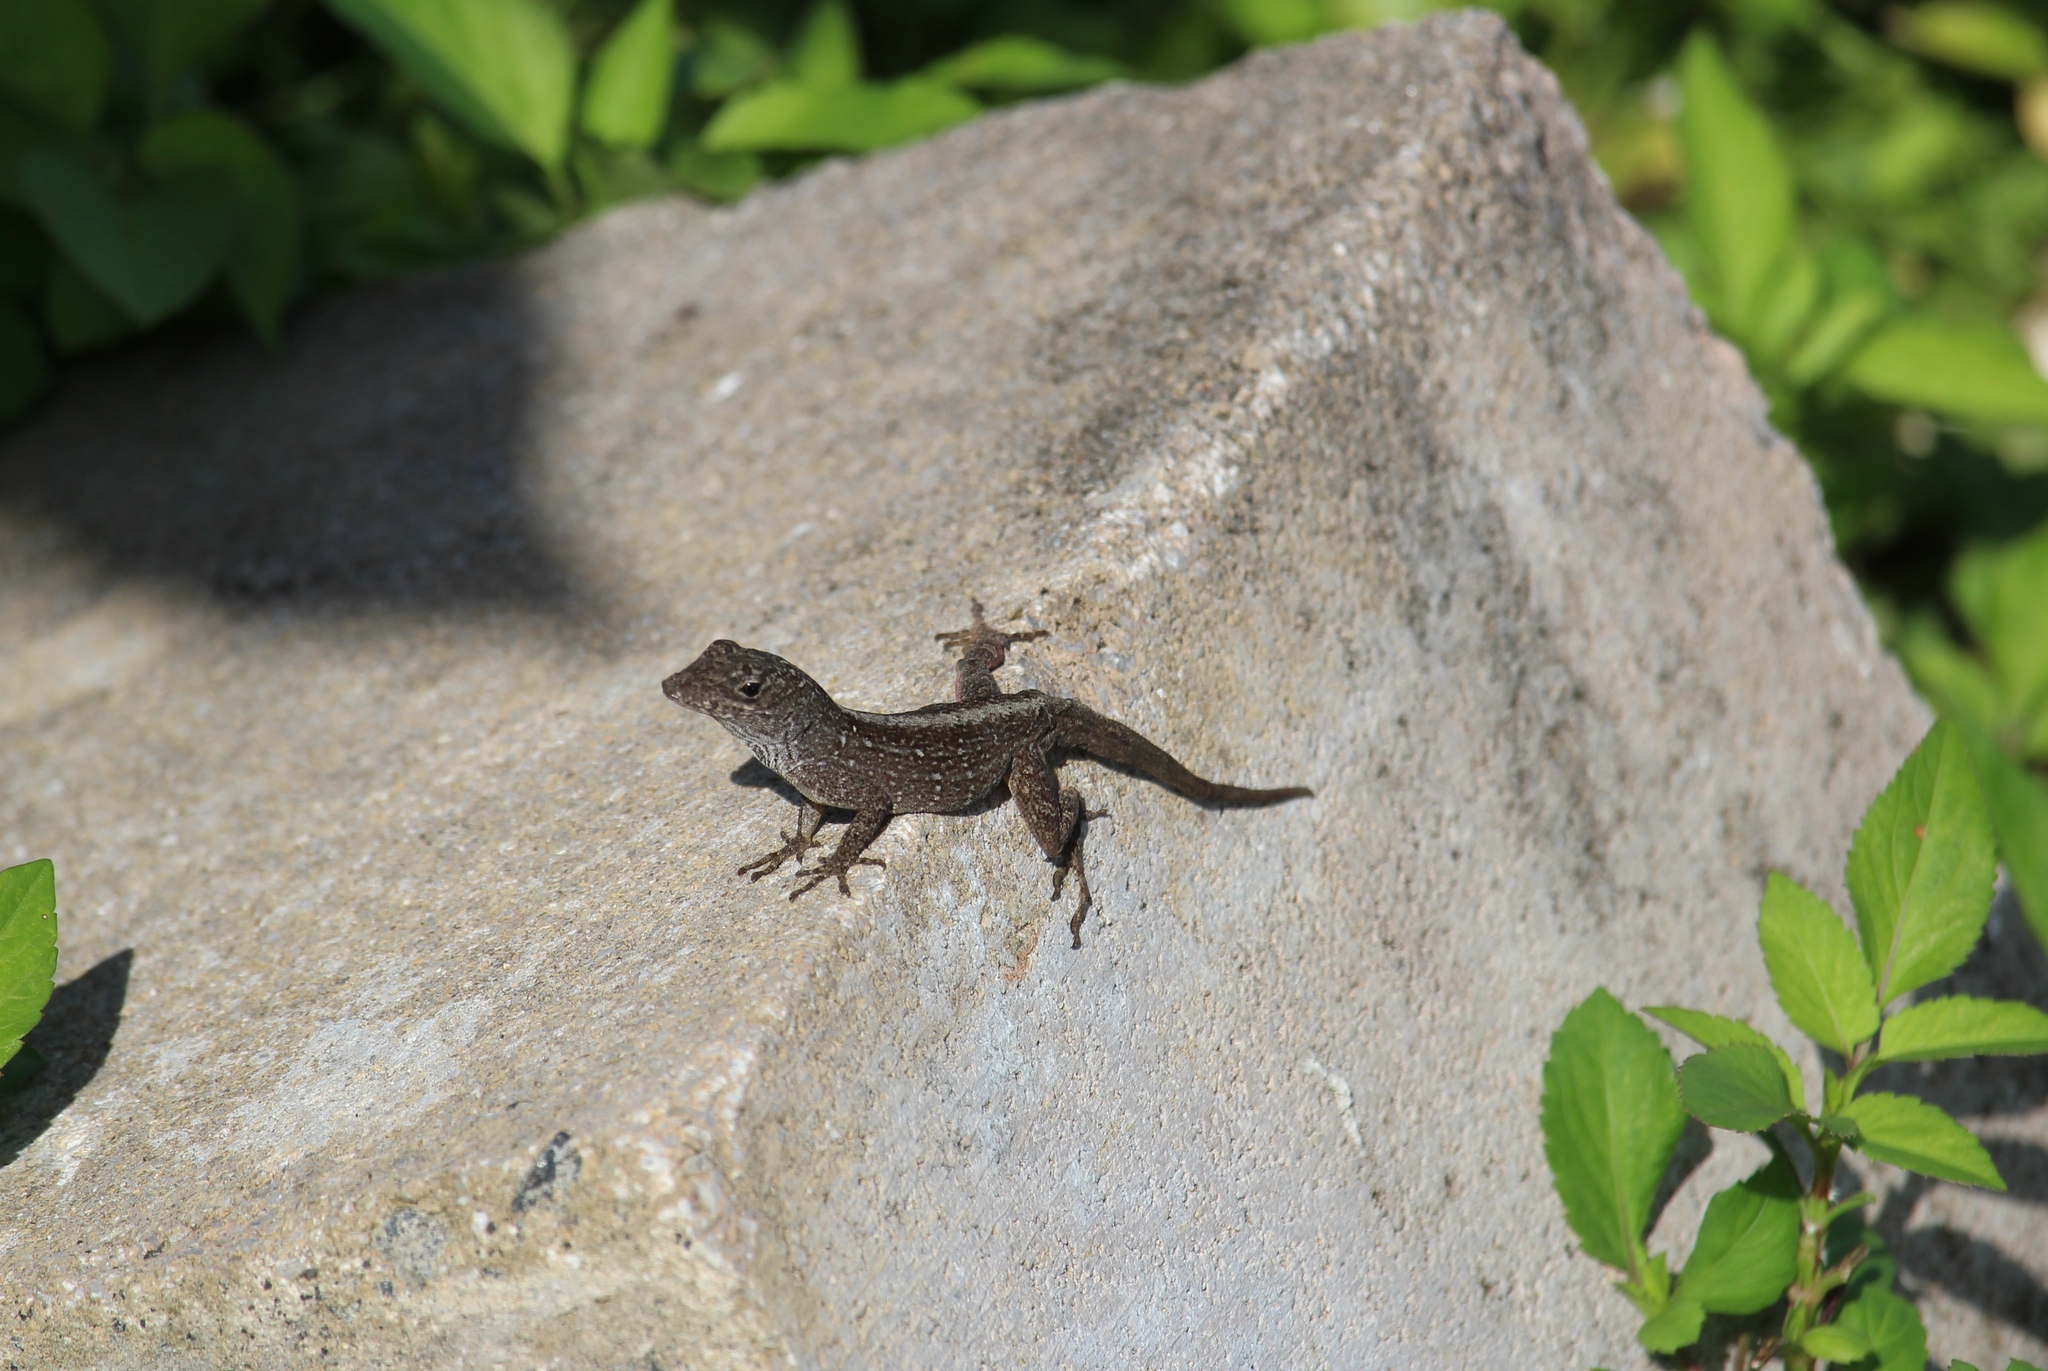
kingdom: Animalia
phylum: Chordata
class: Squamata
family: Dactyloidae
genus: Anolis
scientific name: Anolis sagrei
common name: Brown anole
